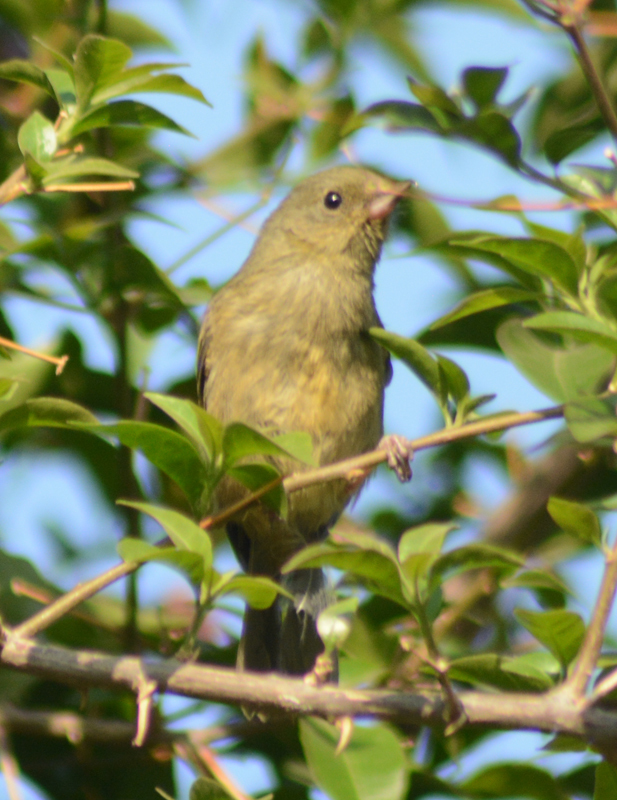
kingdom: Animalia
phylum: Chordata
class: Aves
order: Passeriformes
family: Thraupidae
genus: Diglossa
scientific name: Diglossa baritula
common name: Cinnamon-bellied flowerpiercer
